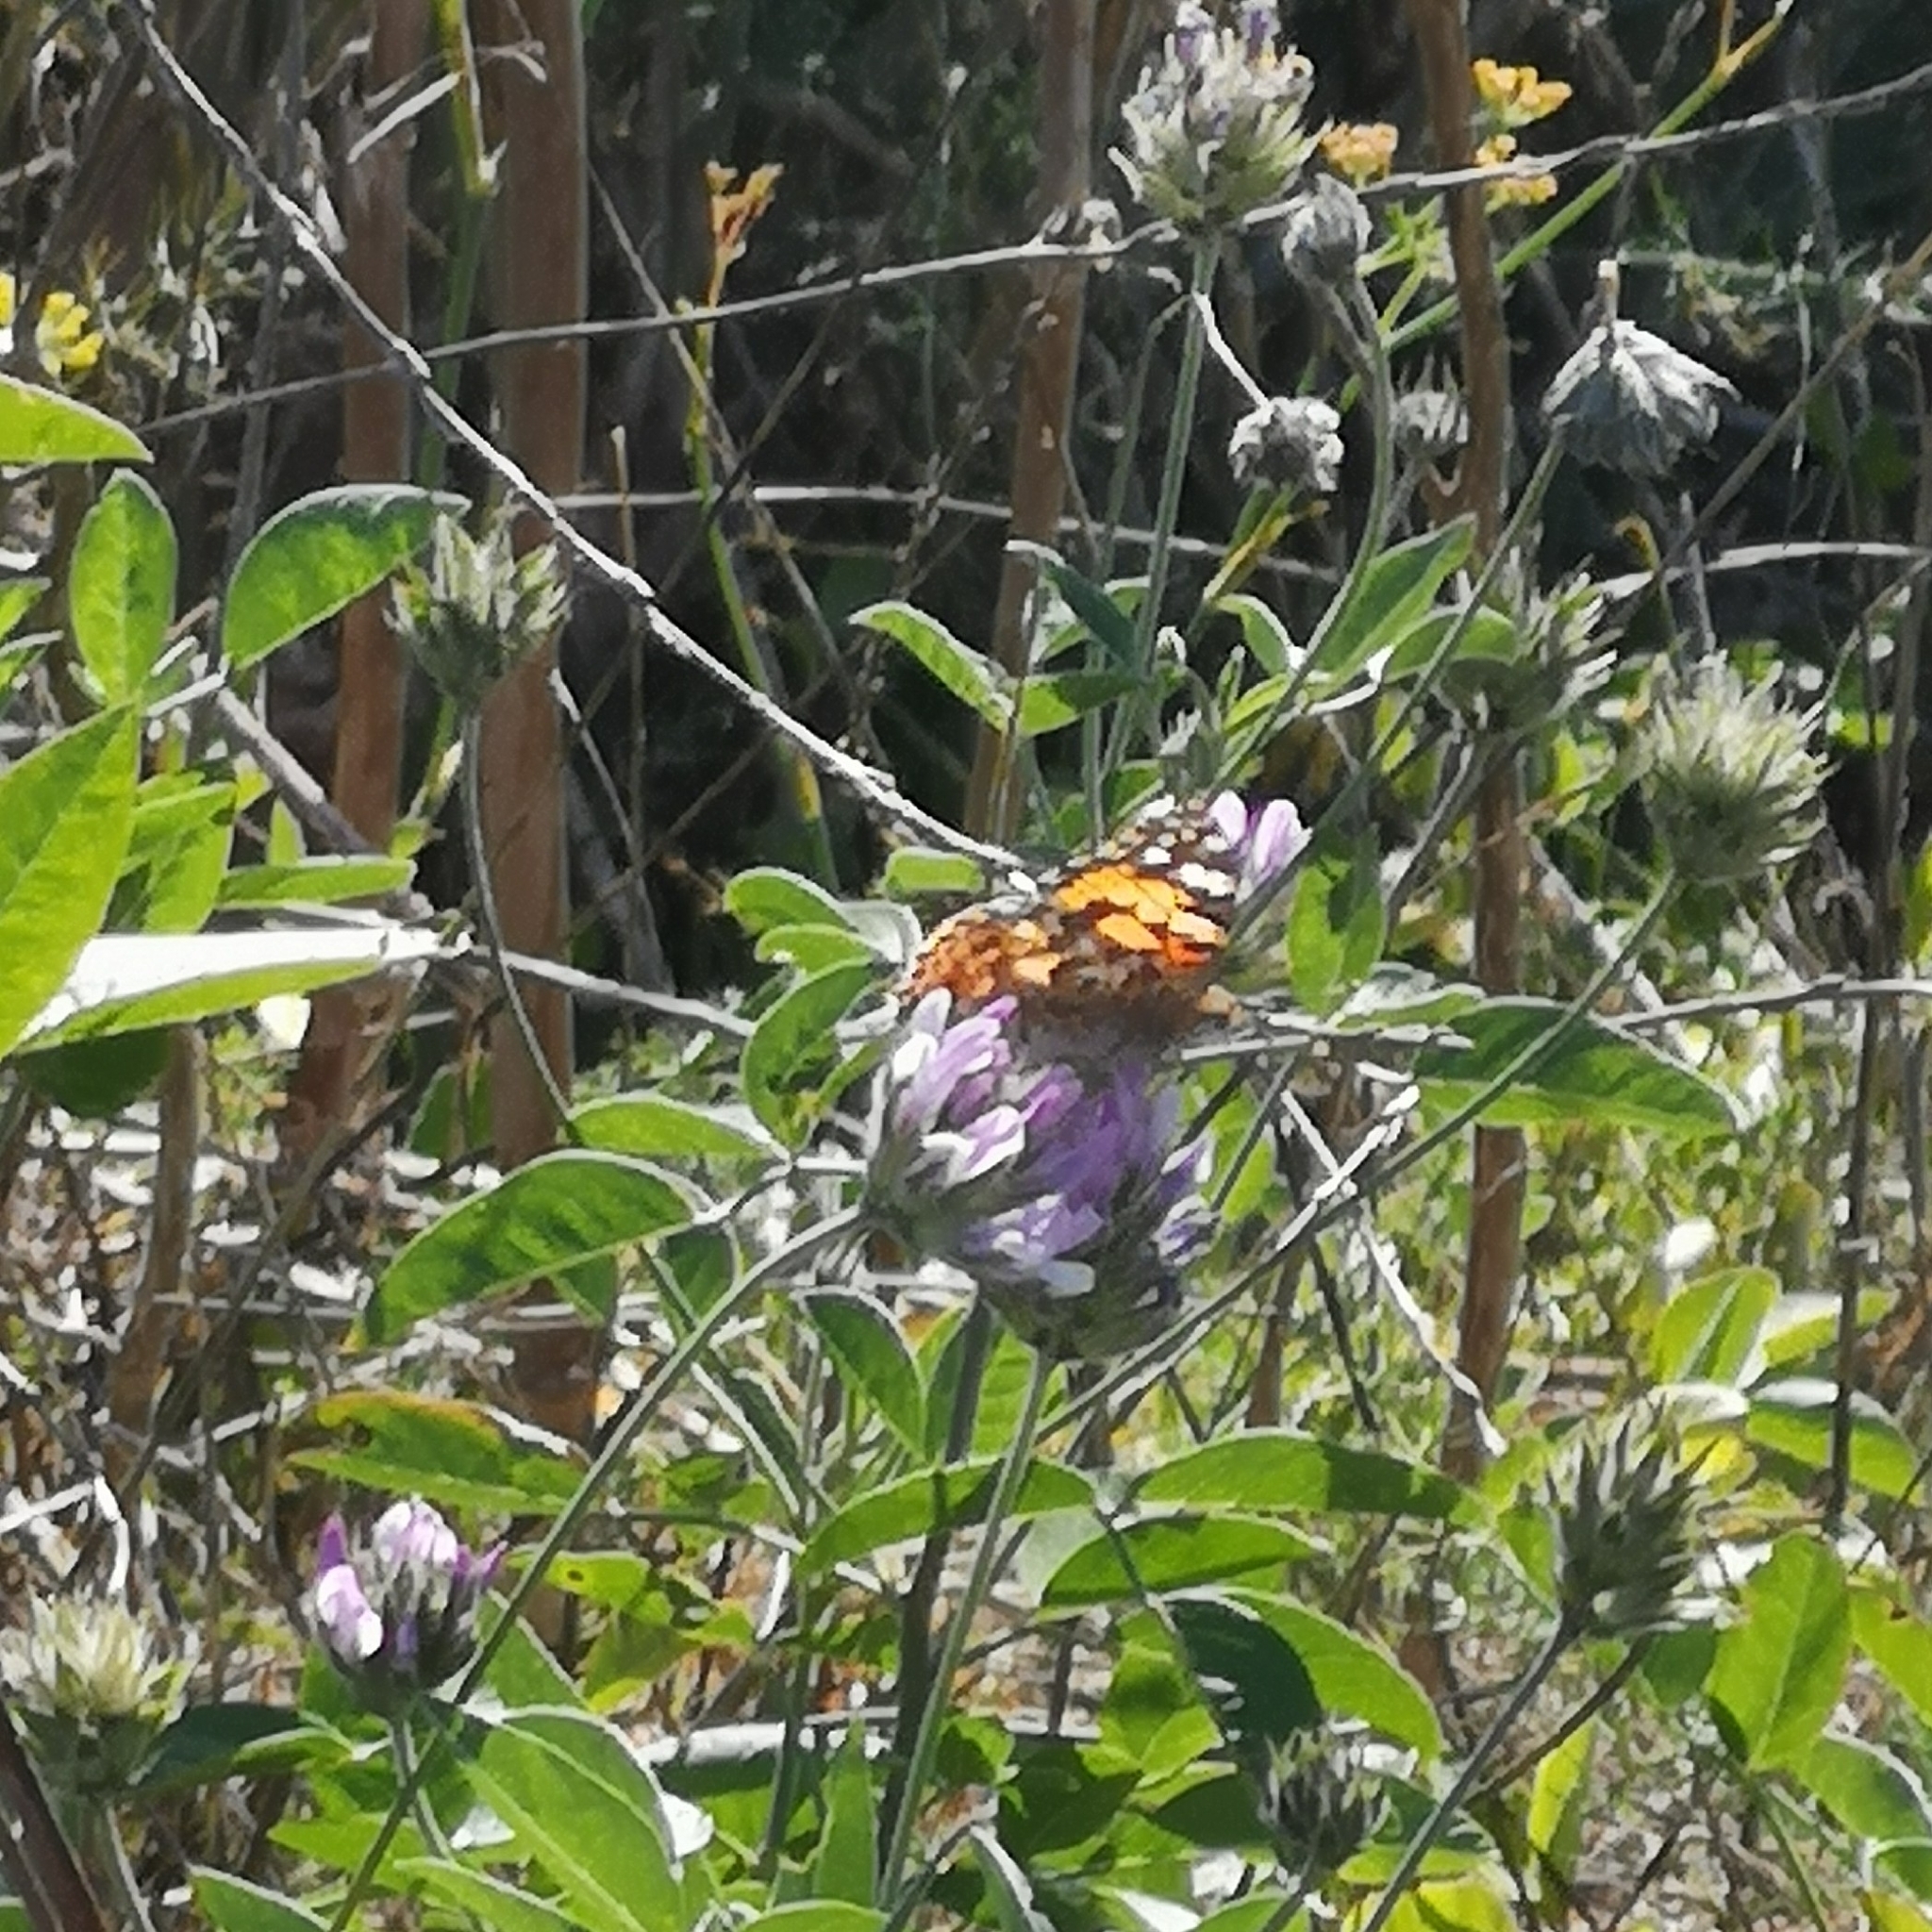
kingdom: Animalia
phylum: Arthropoda
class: Insecta
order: Lepidoptera
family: Nymphalidae
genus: Vanessa
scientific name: Vanessa cardui
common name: Painted lady
